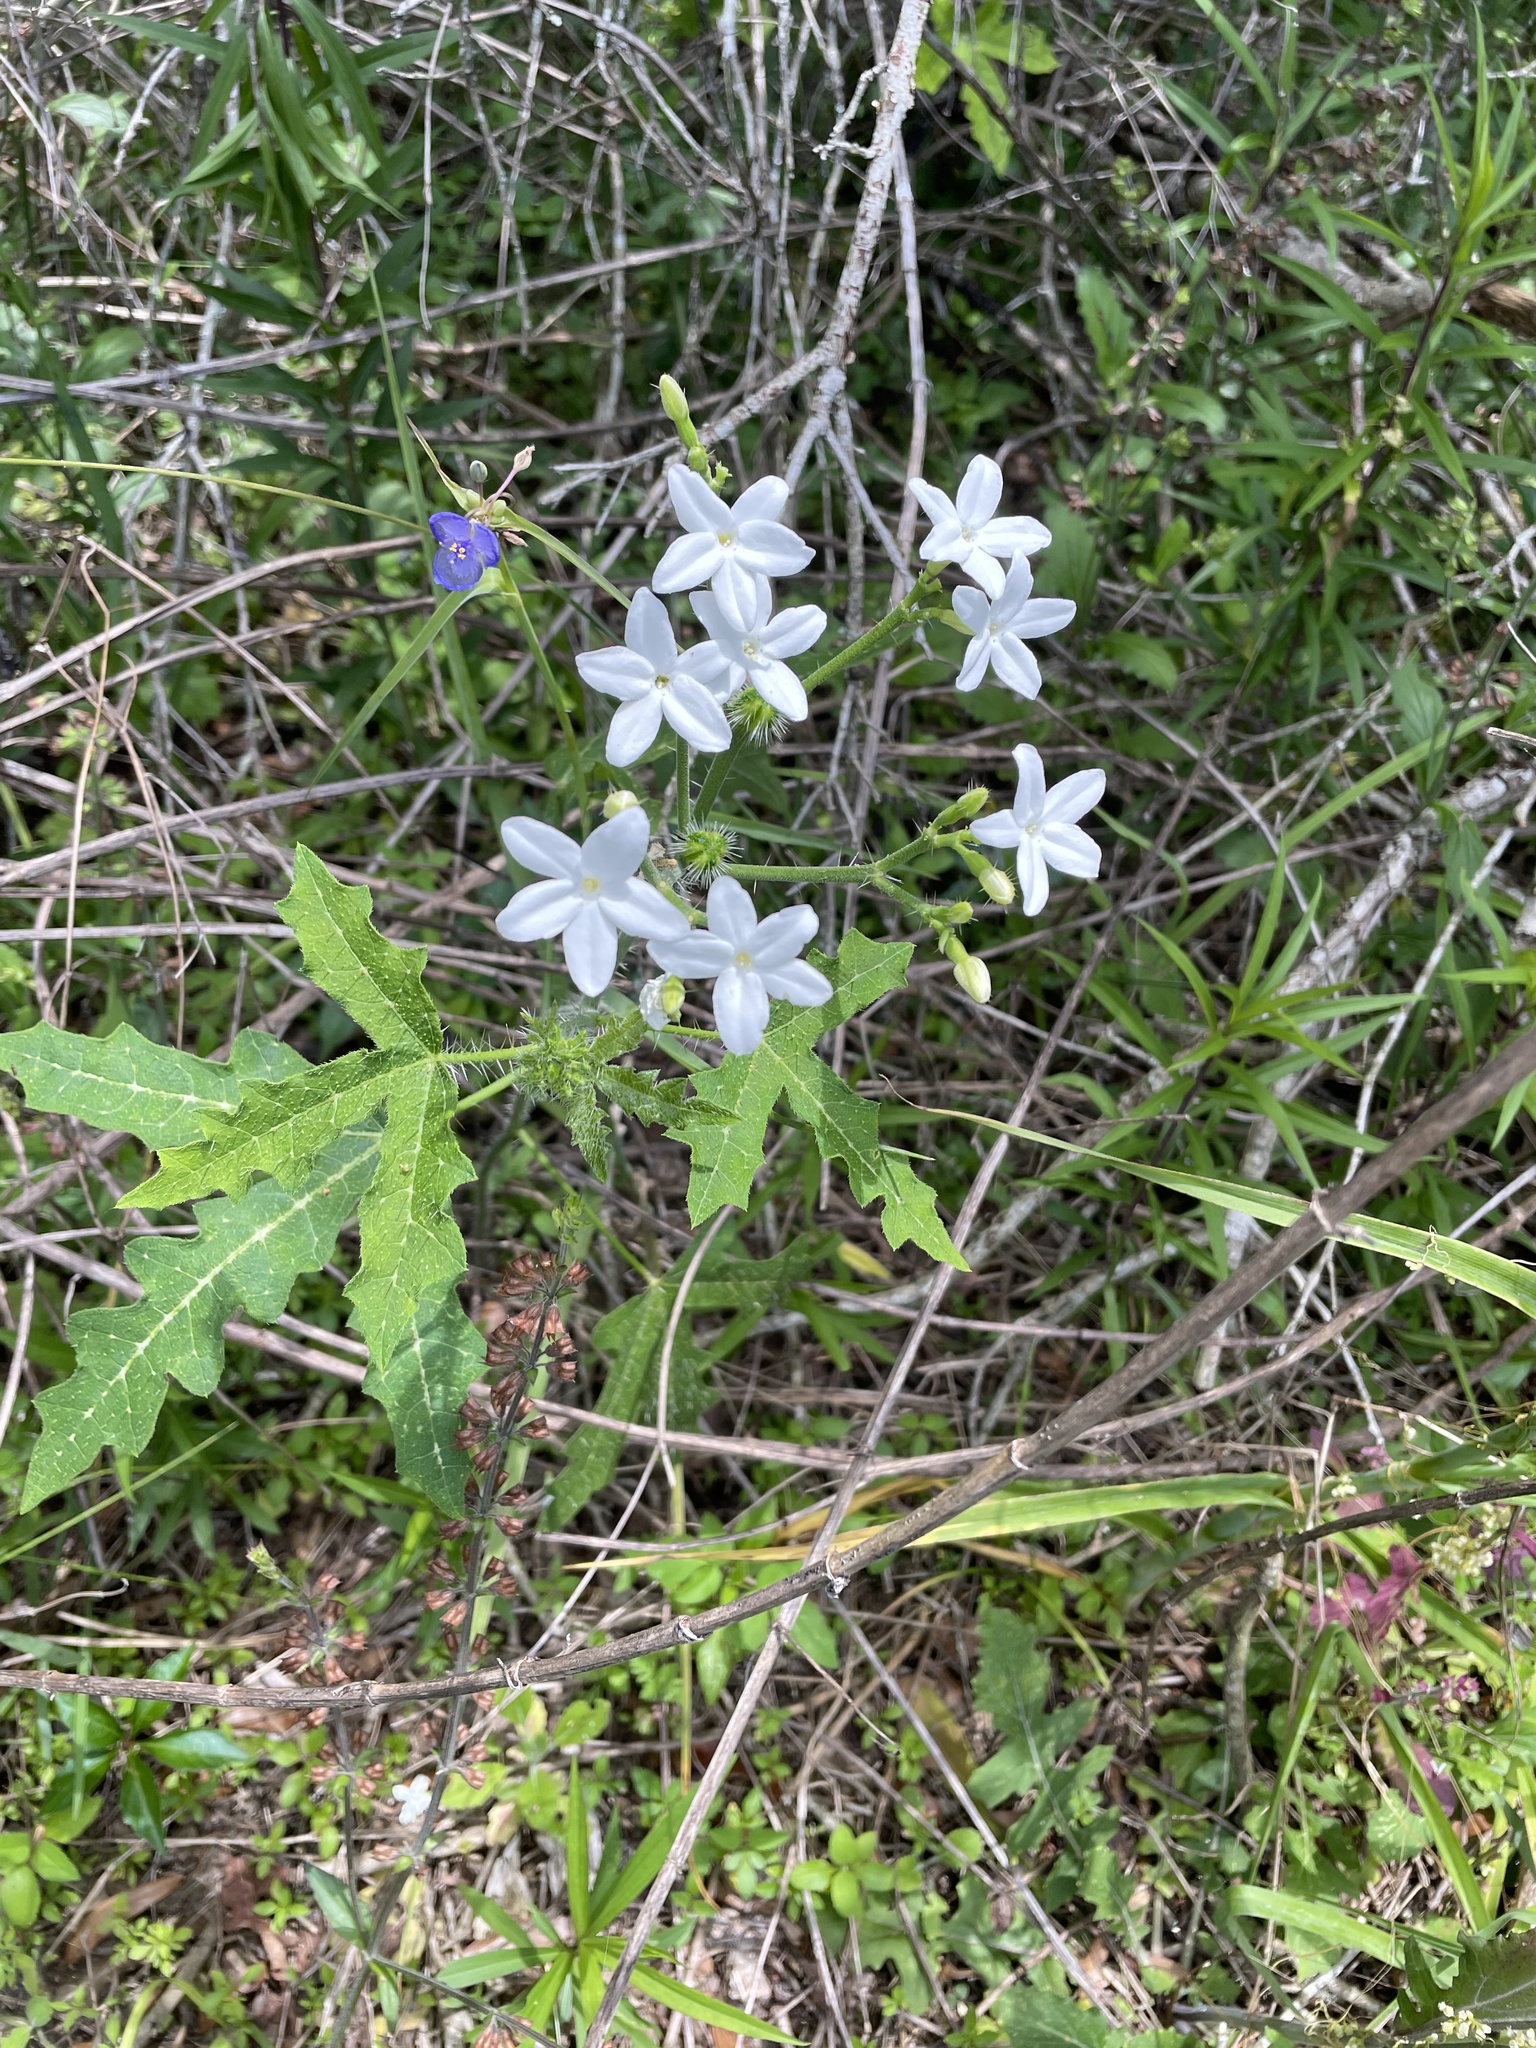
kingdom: Plantae
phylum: Tracheophyta
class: Magnoliopsida
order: Malpighiales
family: Euphorbiaceae
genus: Cnidoscolus
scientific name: Cnidoscolus stimulosus
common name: Bull-nettle
